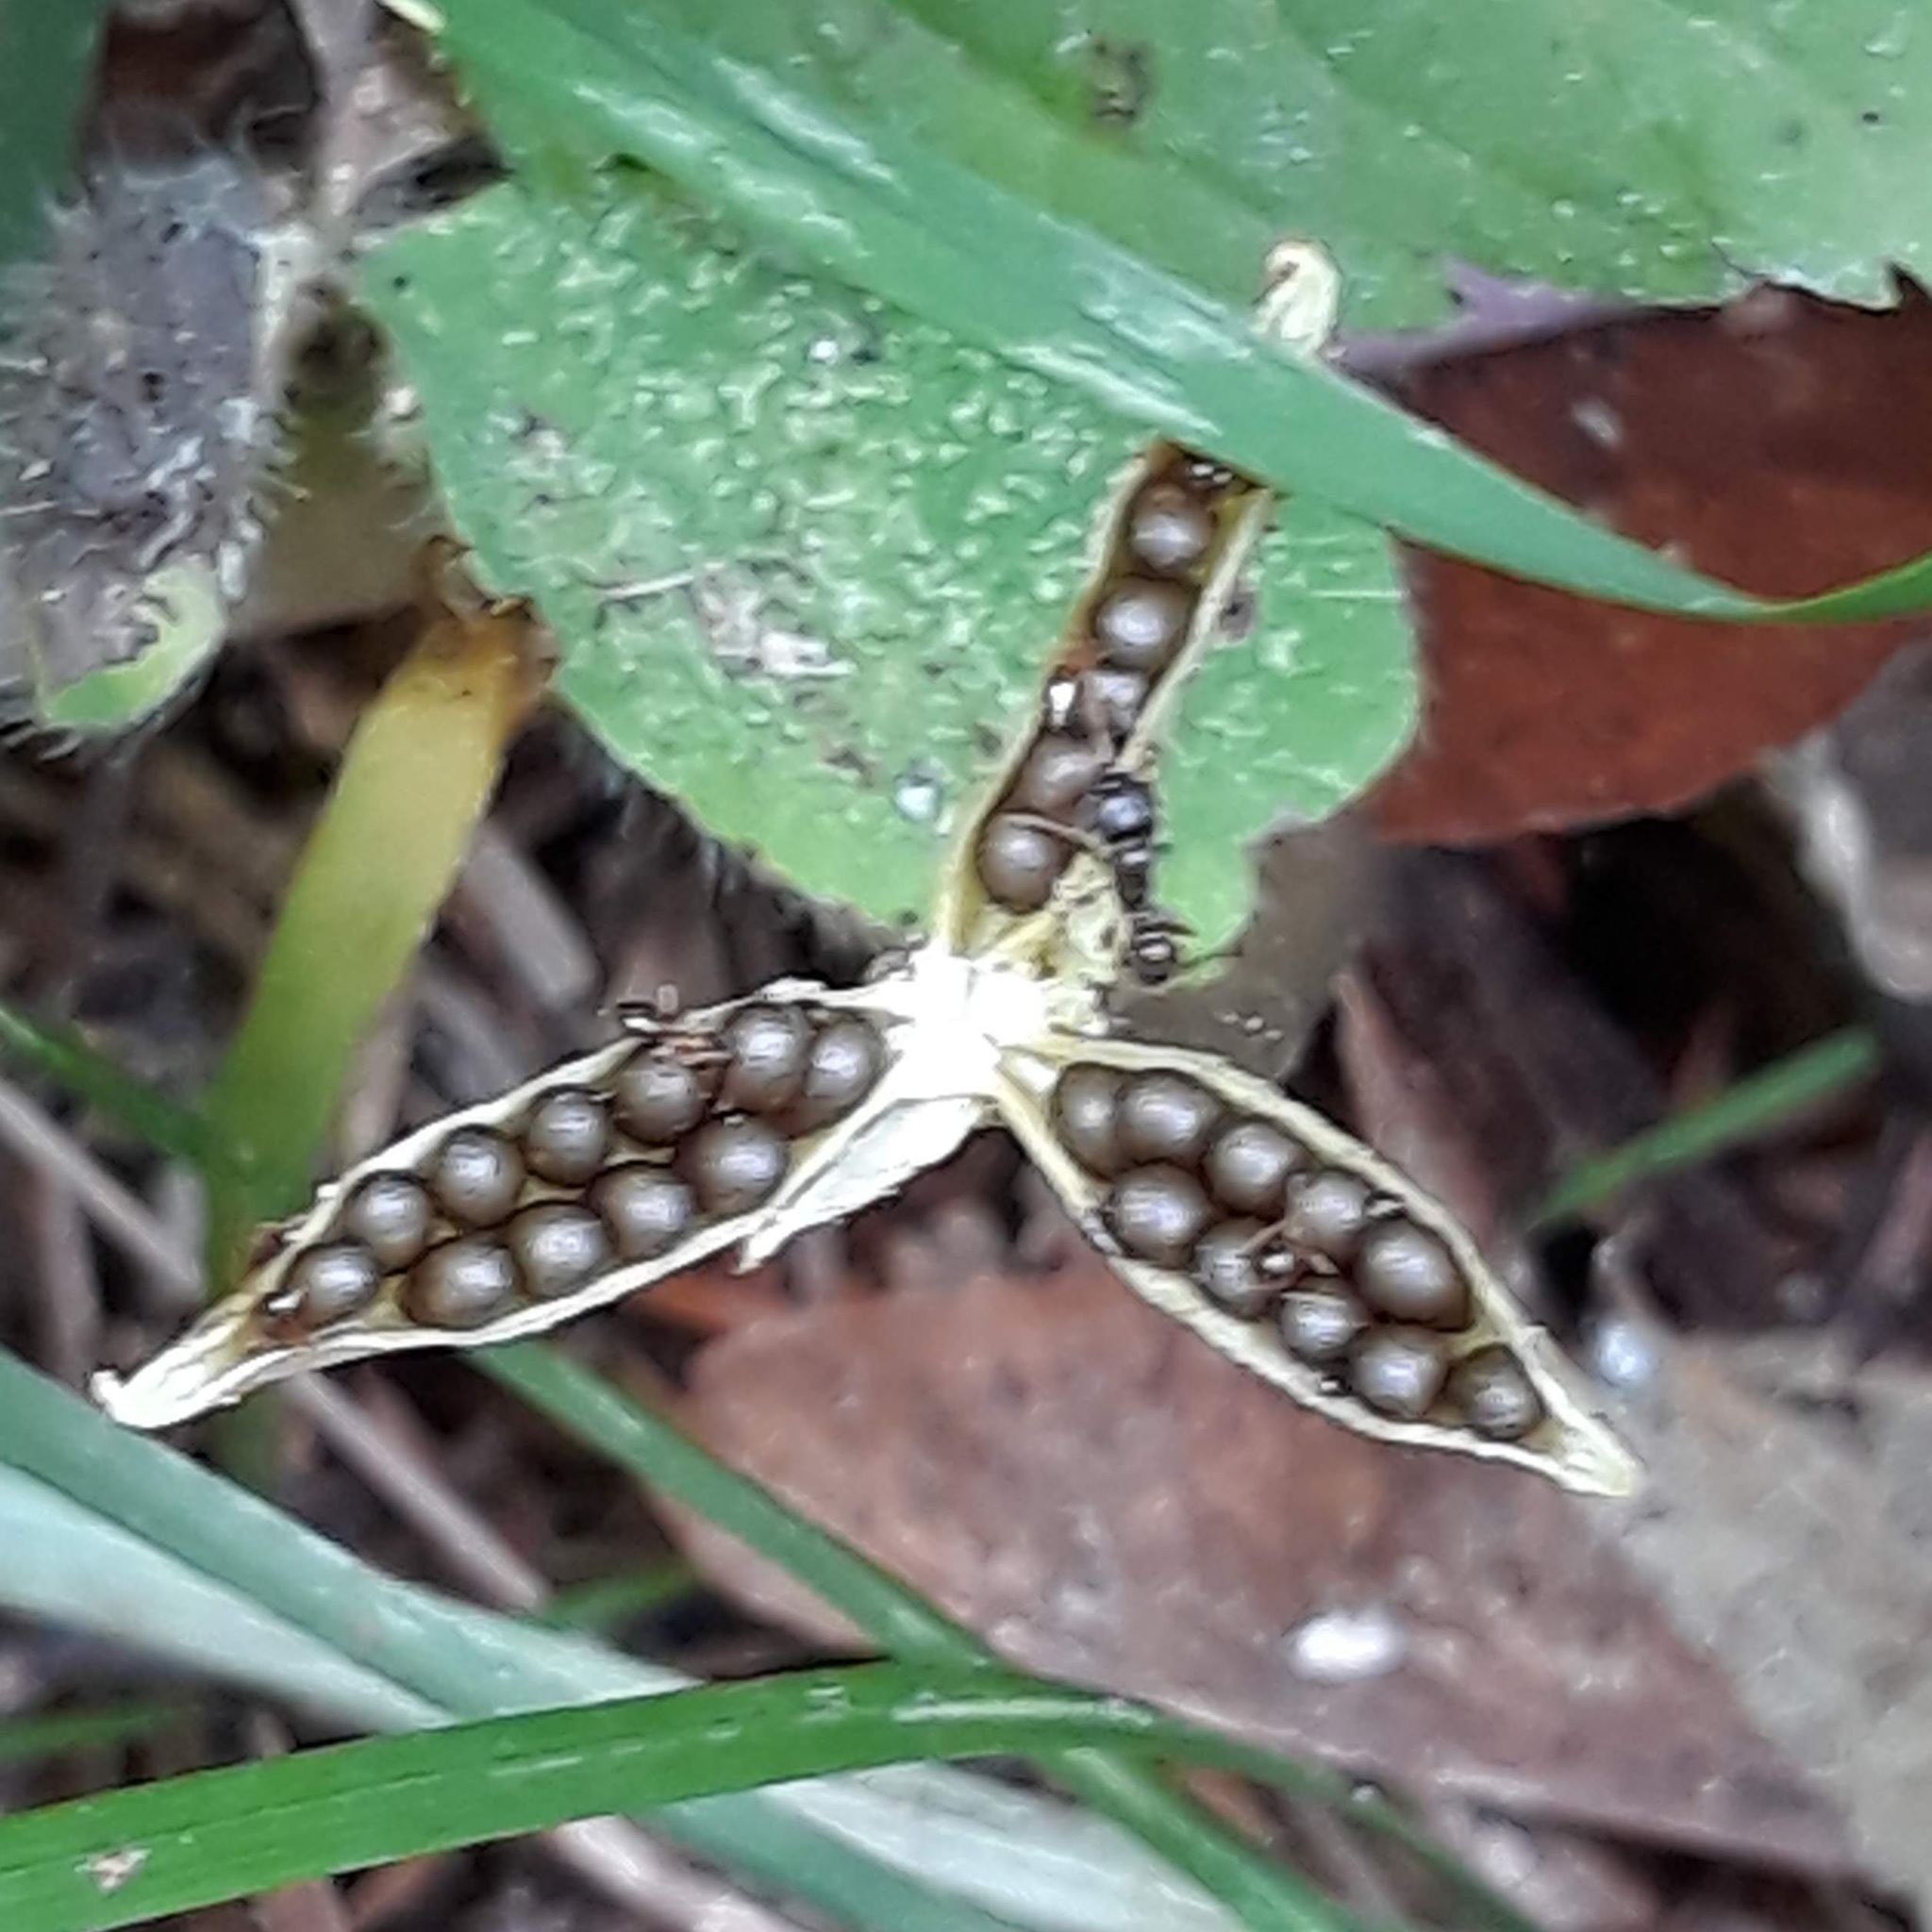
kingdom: Plantae
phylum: Tracheophyta
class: Magnoliopsida
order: Malpighiales
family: Violaceae
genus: Viola
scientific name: Viola sororia
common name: Dooryard violet
